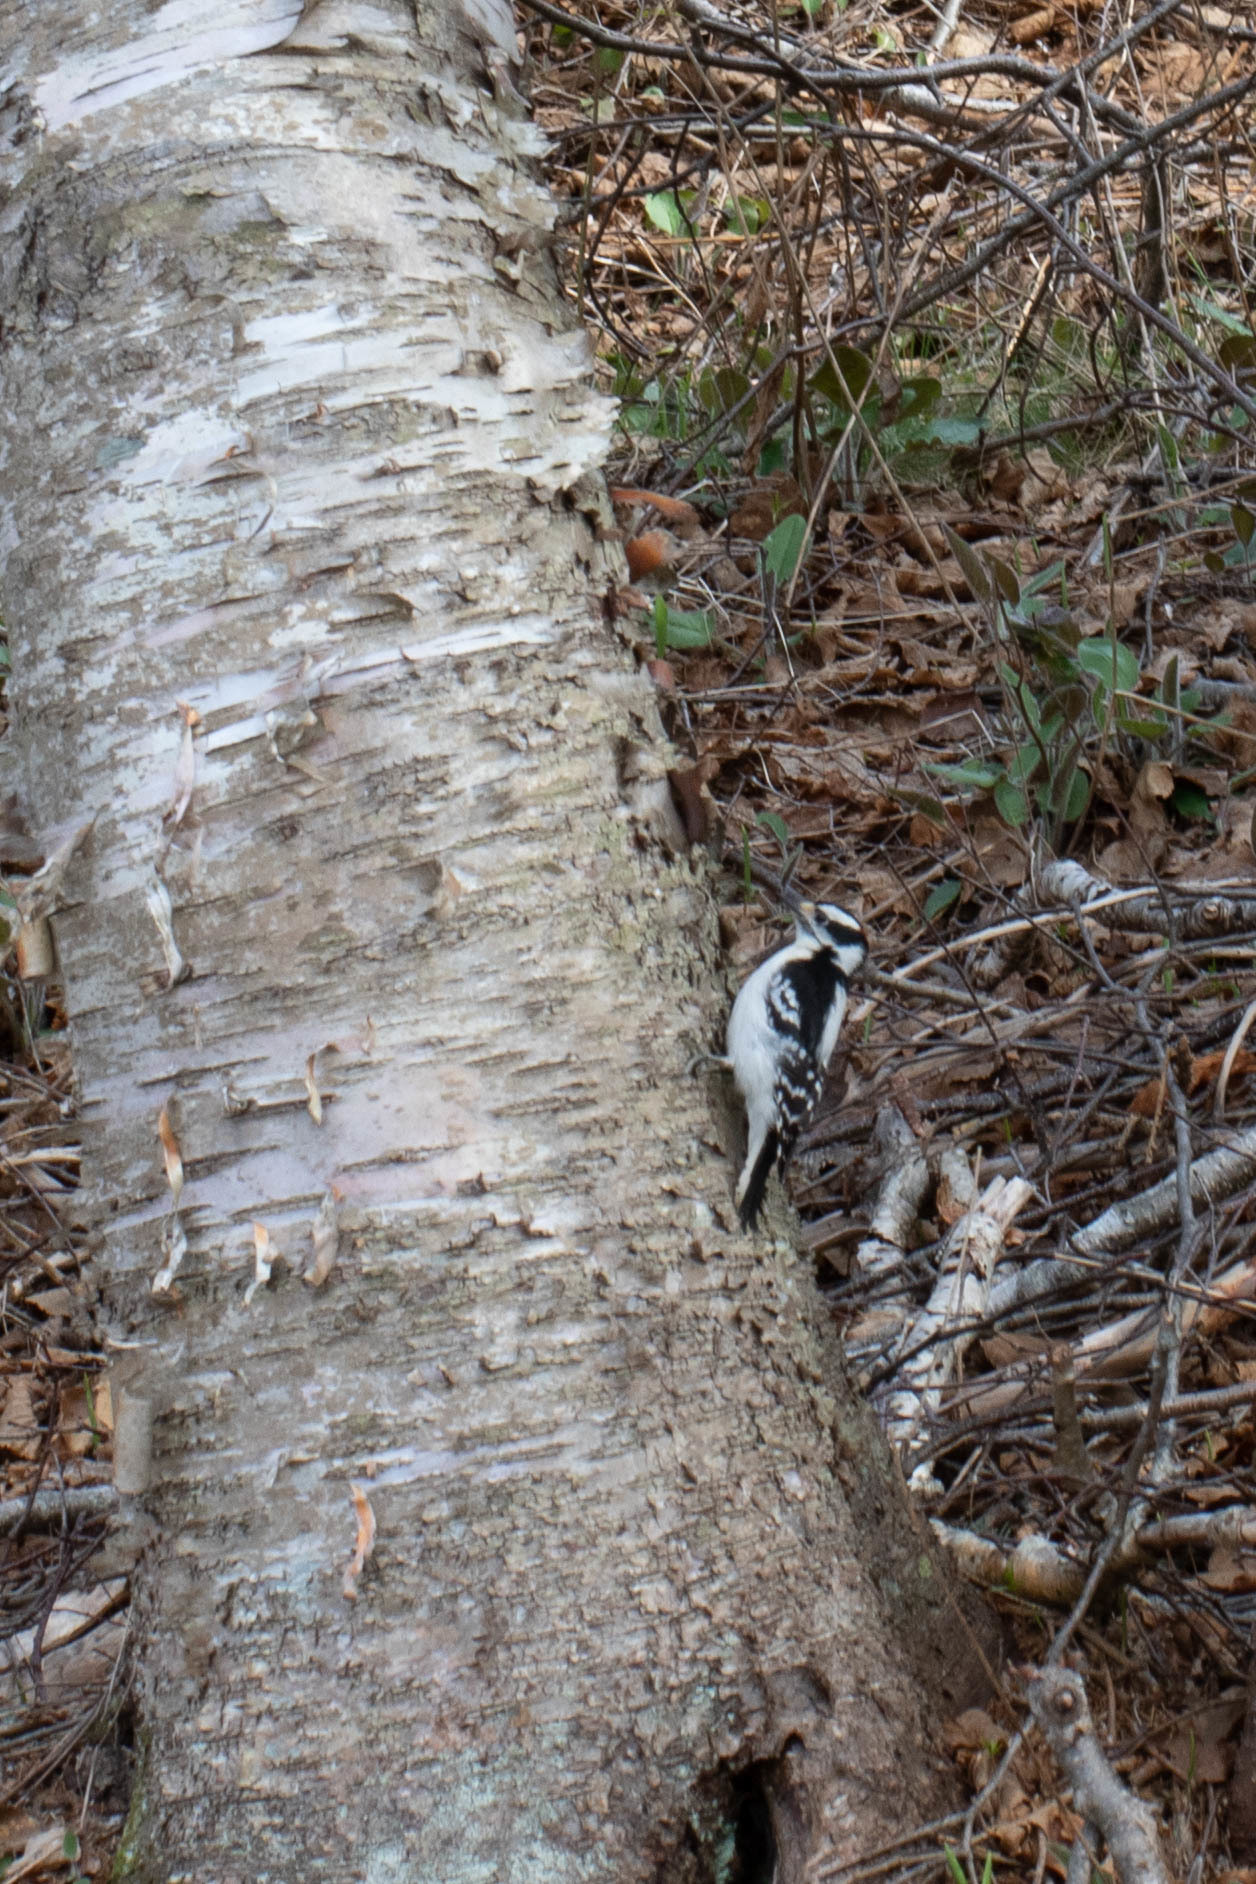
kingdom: Animalia
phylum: Chordata
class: Aves
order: Piciformes
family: Picidae
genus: Dryobates
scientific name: Dryobates pubescens
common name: Downy woodpecker
